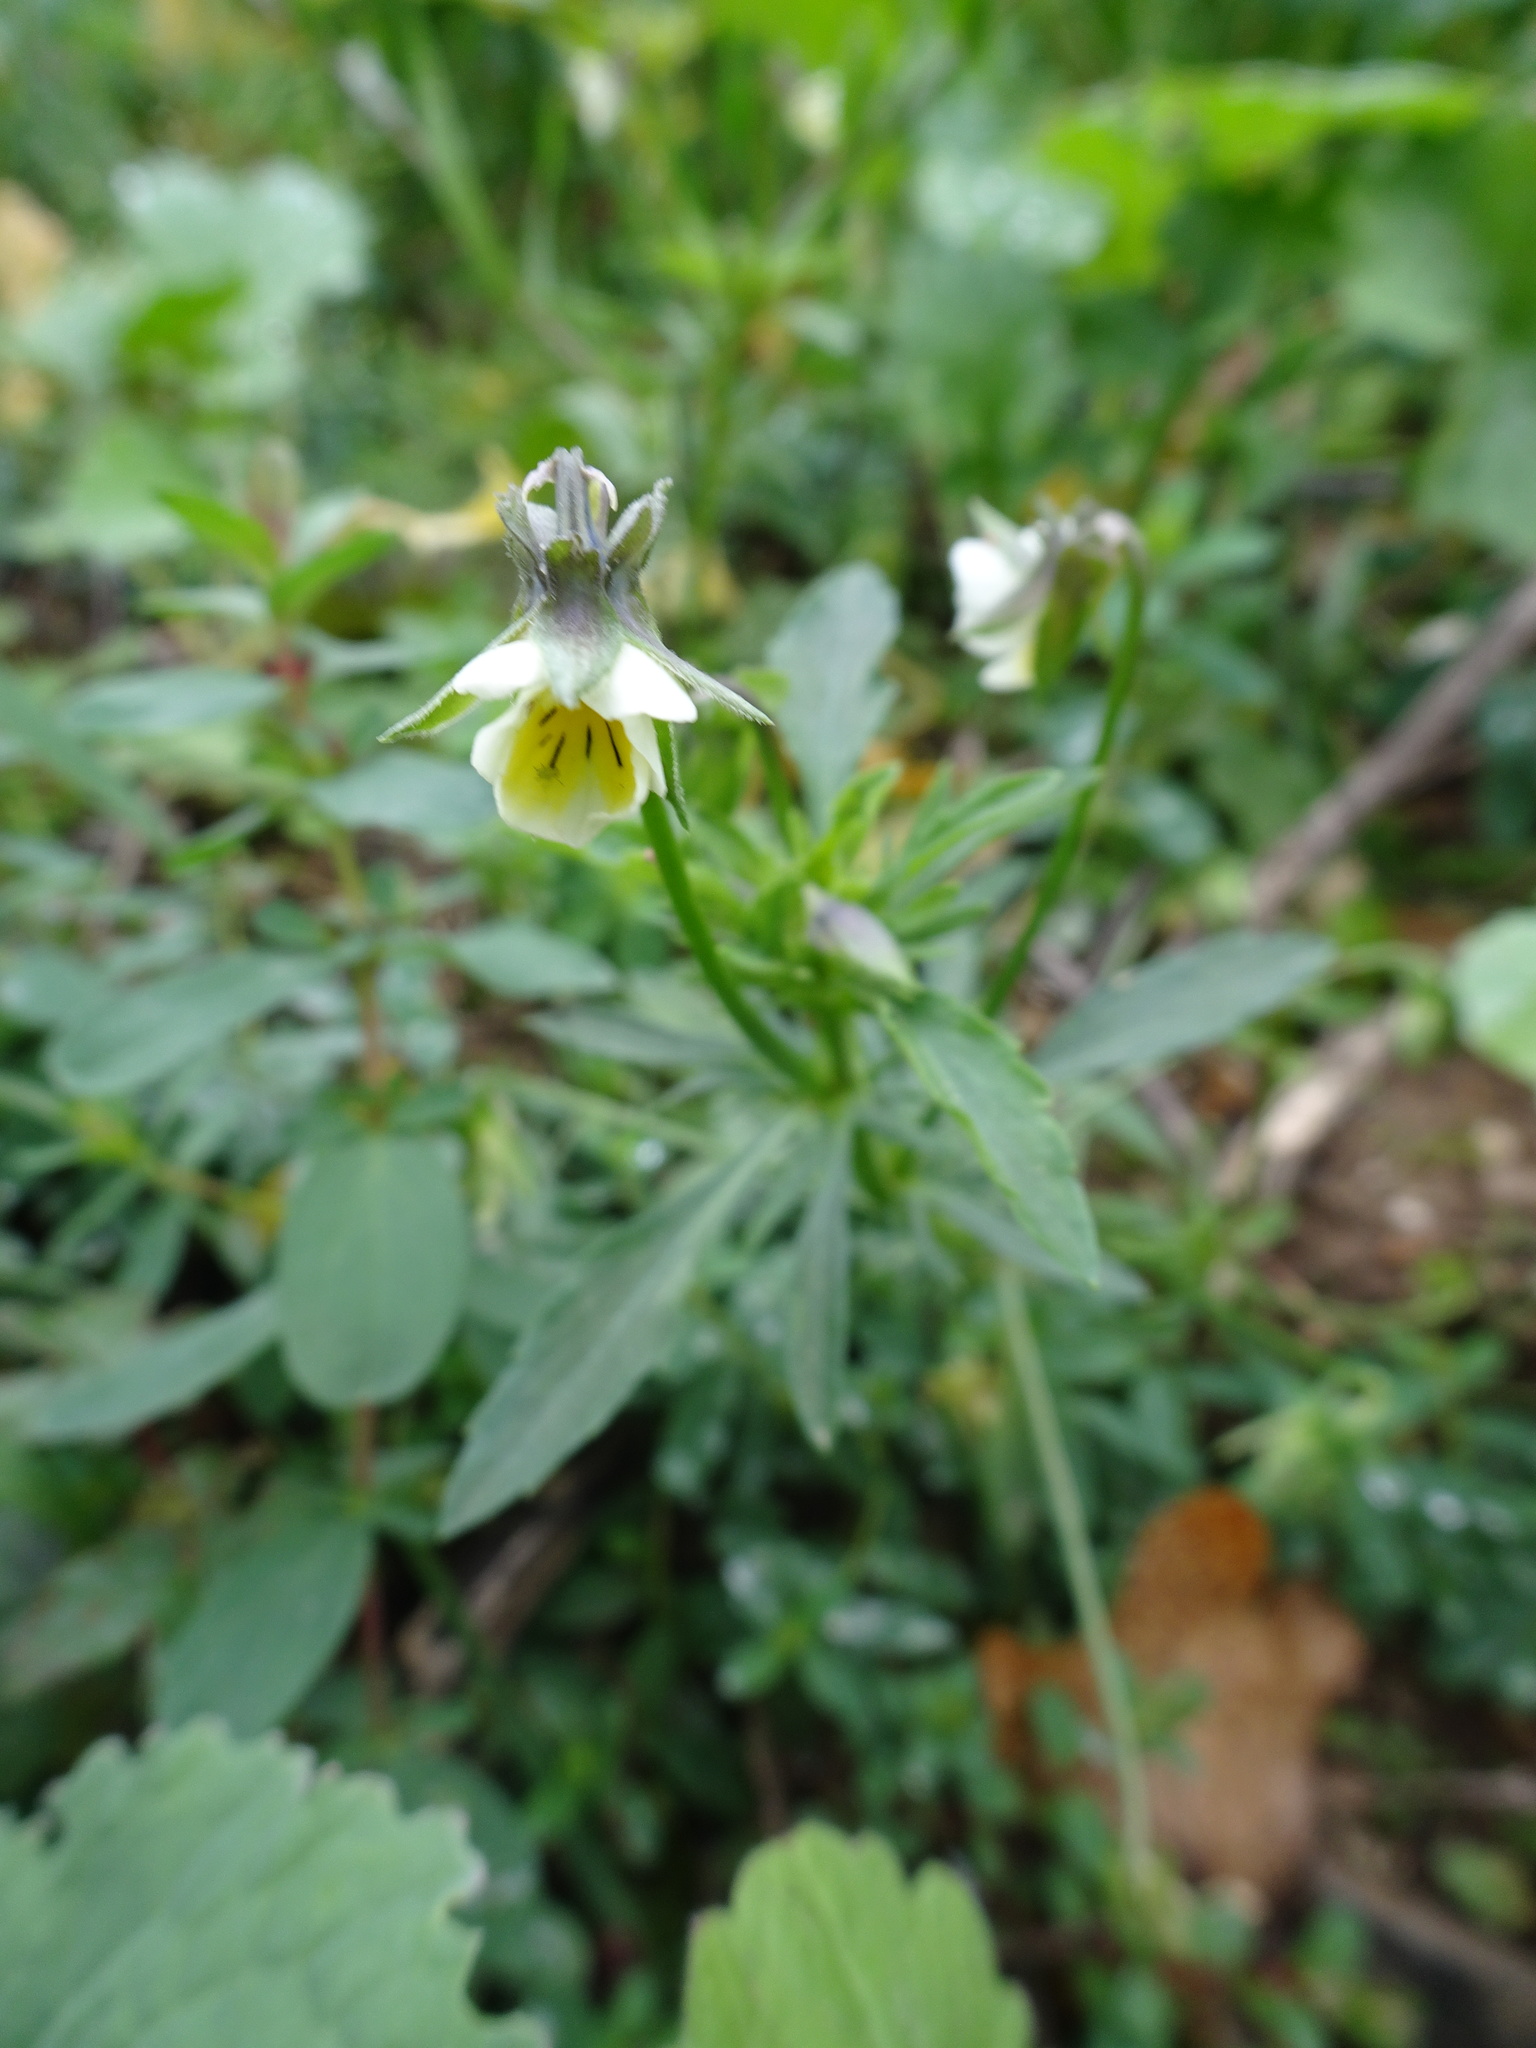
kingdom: Plantae
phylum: Tracheophyta
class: Magnoliopsida
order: Malpighiales
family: Violaceae
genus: Viola
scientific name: Viola arvensis
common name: Field pansy
